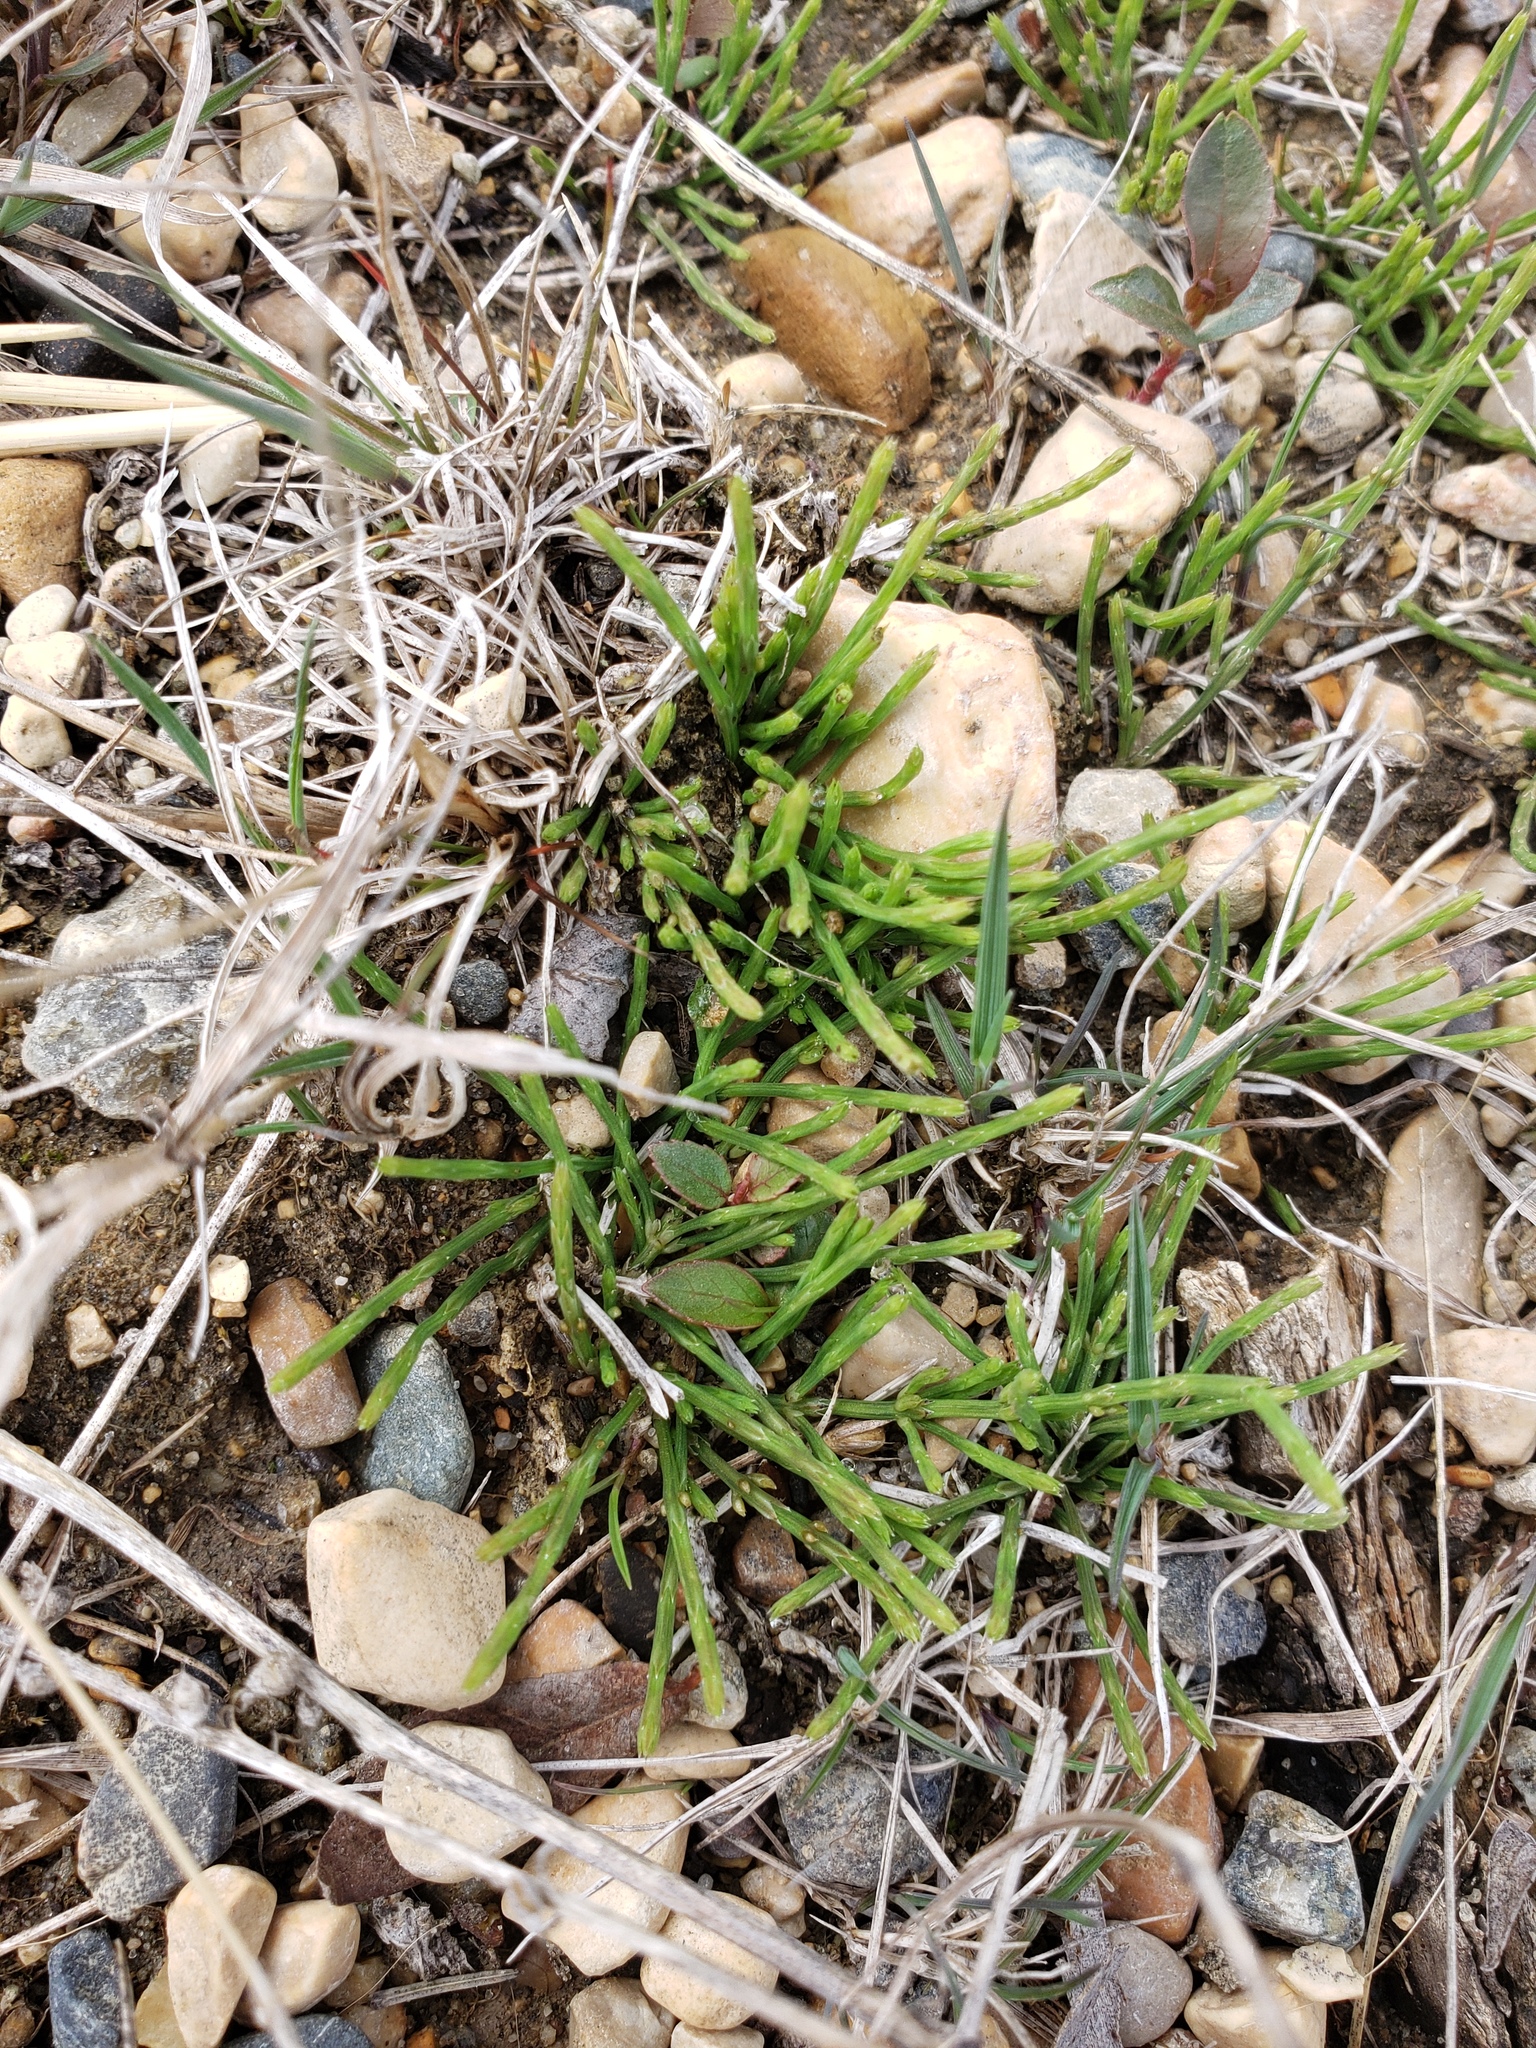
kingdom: Plantae
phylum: Tracheophyta
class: Polypodiopsida
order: Equisetales
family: Equisetaceae
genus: Equisetum
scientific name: Equisetum arvense
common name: Field horsetail
